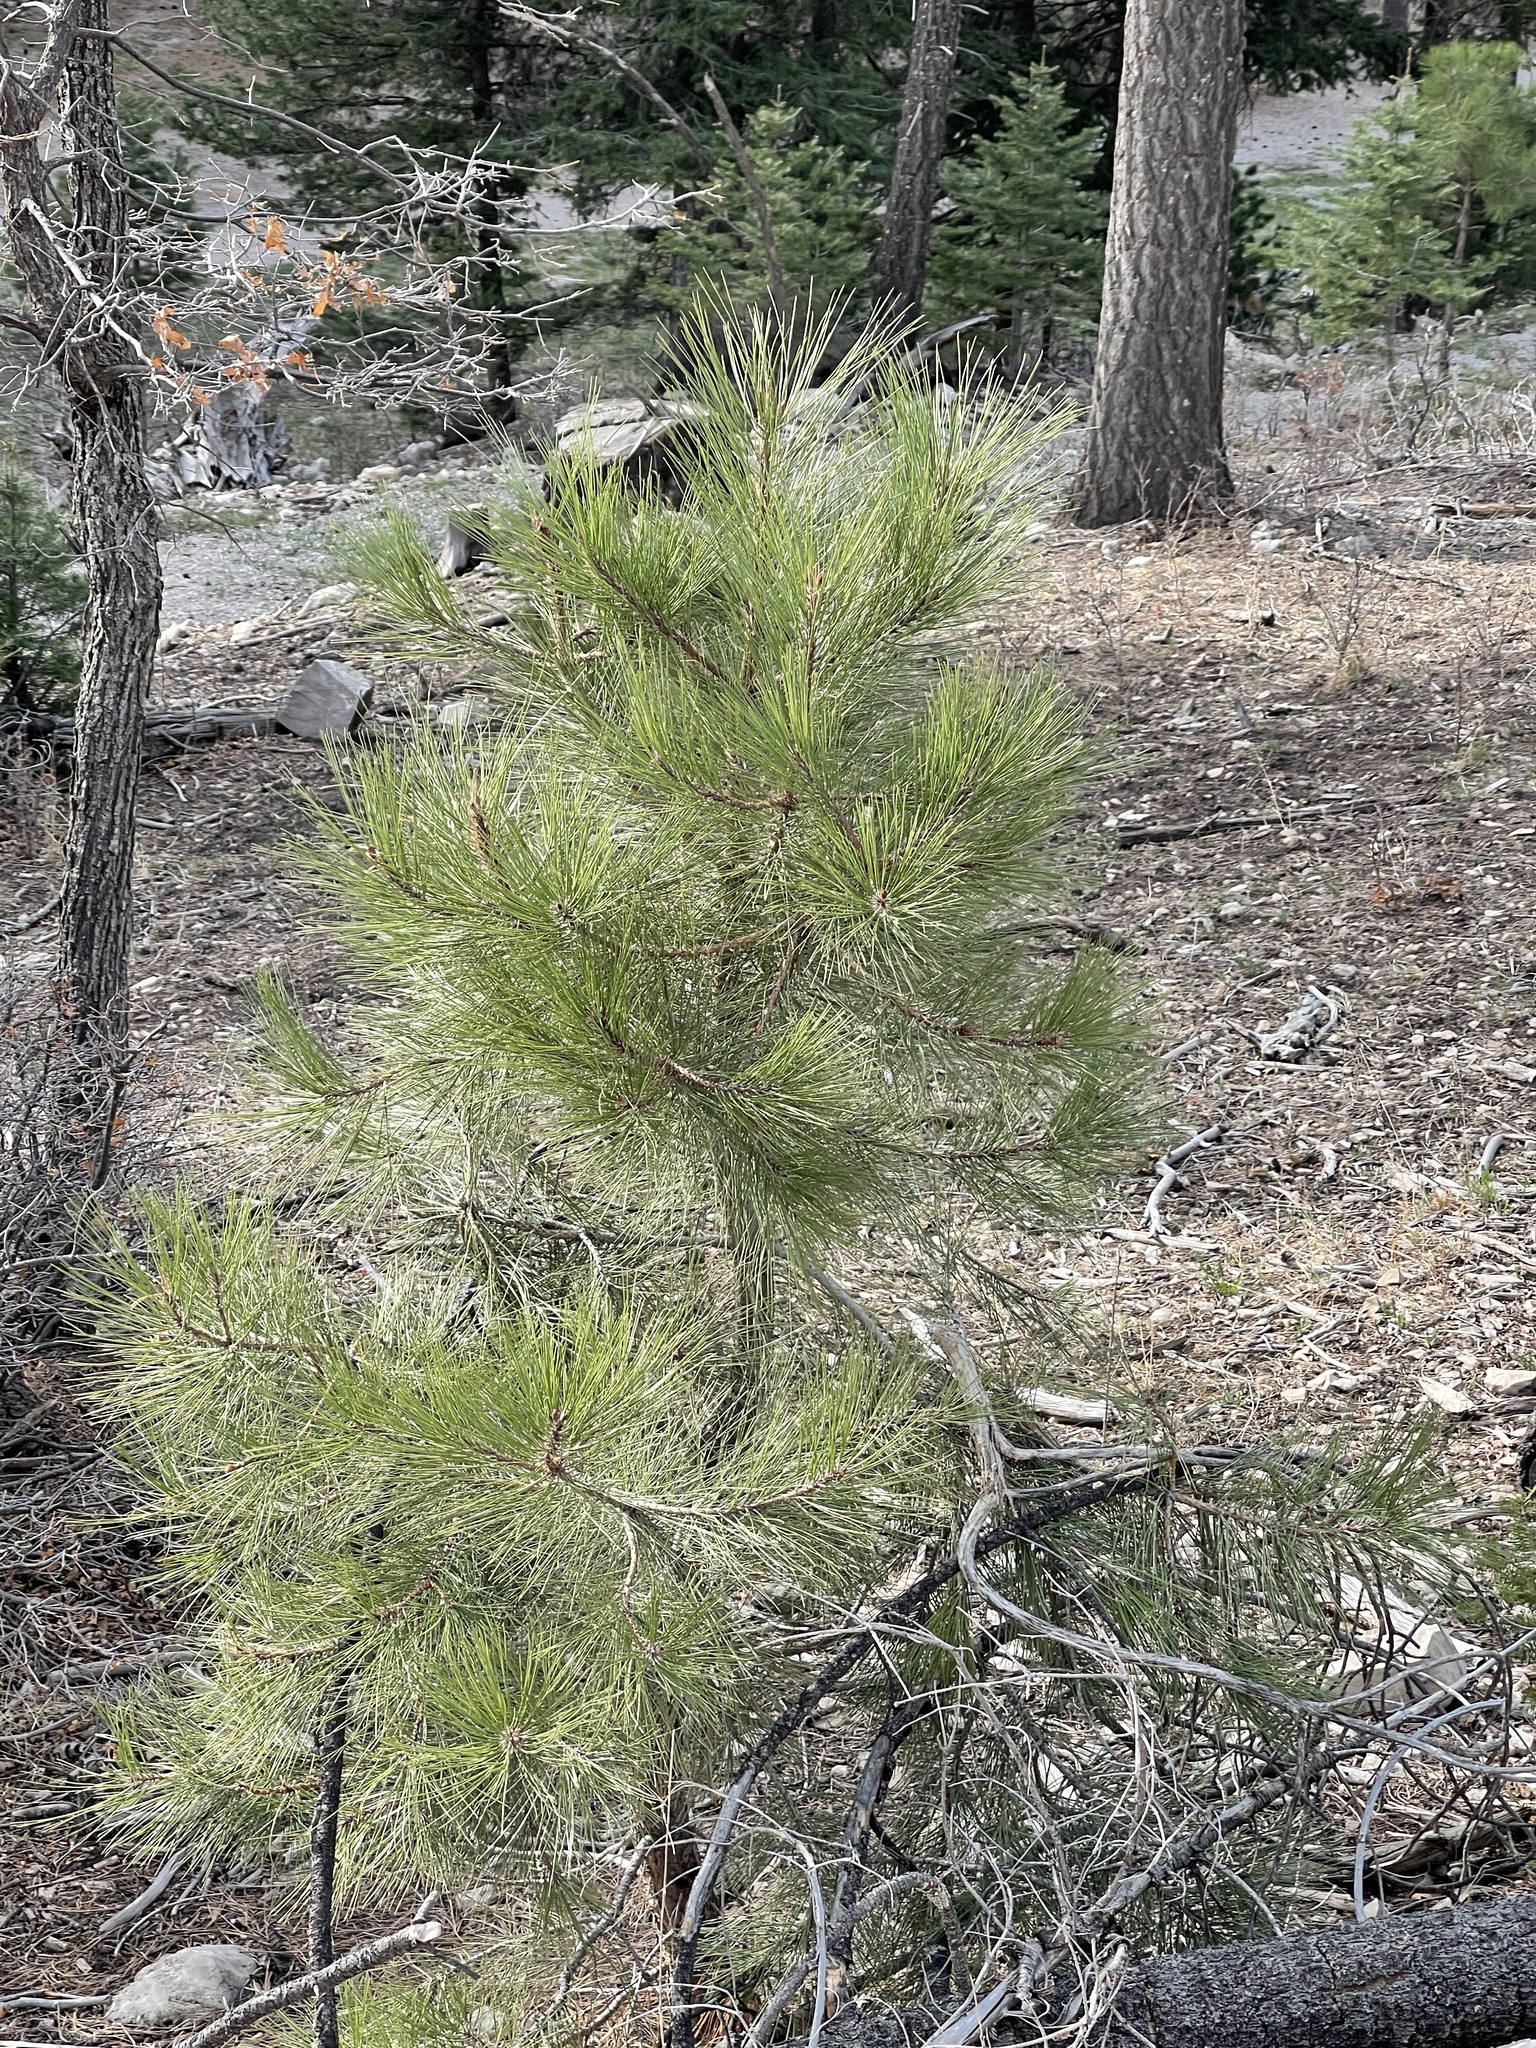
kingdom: Plantae
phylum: Tracheophyta
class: Pinopsida
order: Pinales
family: Pinaceae
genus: Pinus
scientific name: Pinus ponderosa
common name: Western yellow-pine
